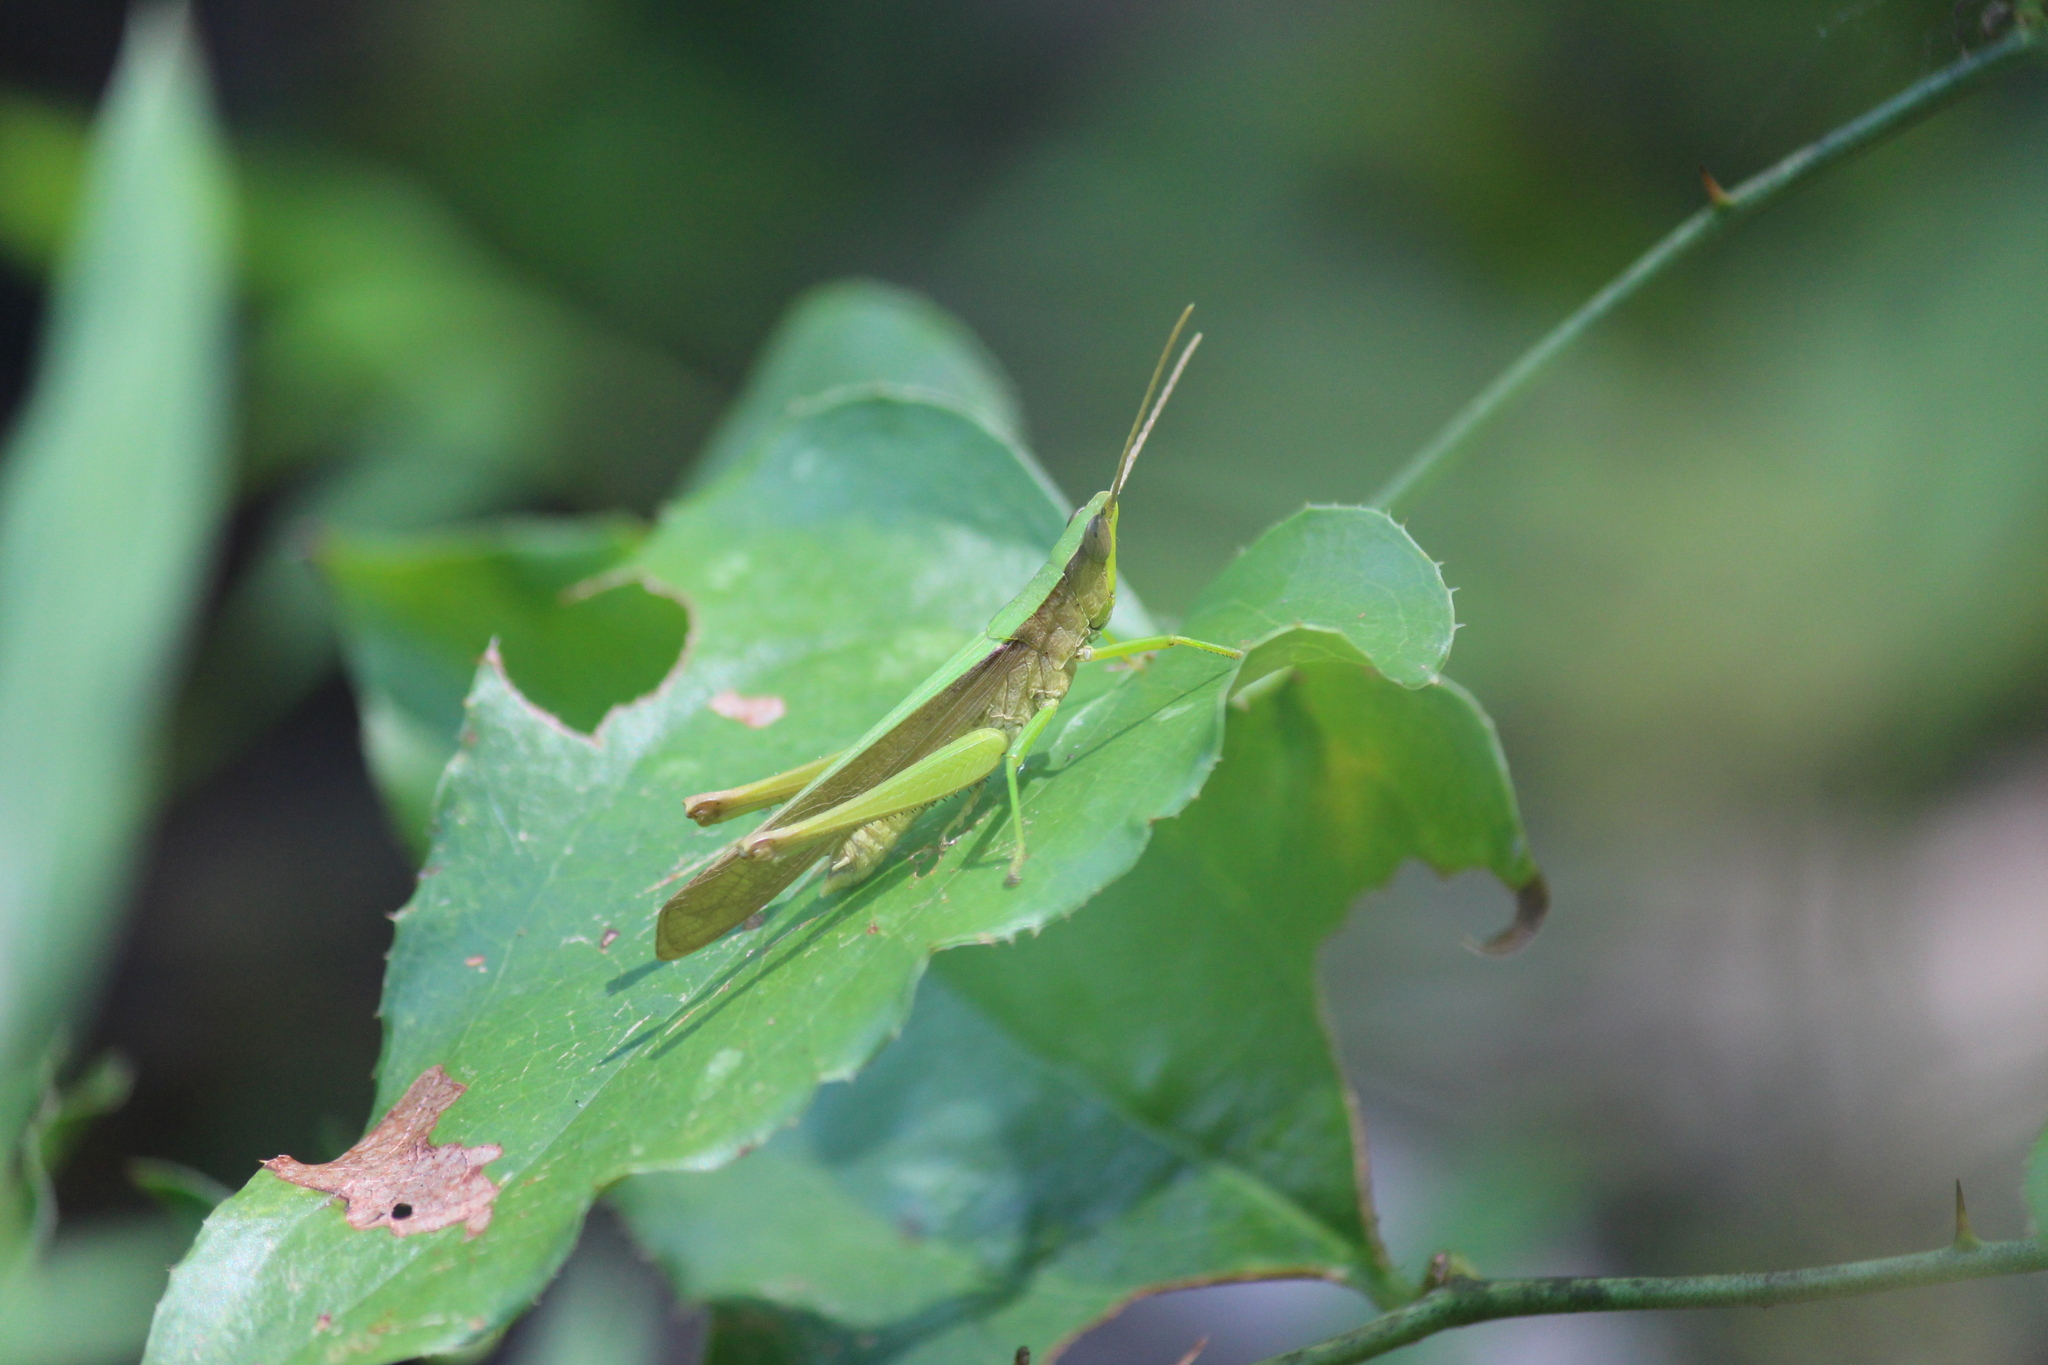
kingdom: Animalia
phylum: Arthropoda
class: Insecta
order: Orthoptera
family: Acrididae
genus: Metaleptea
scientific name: Metaleptea brevicornis
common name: Clipped-wing grasshopper
